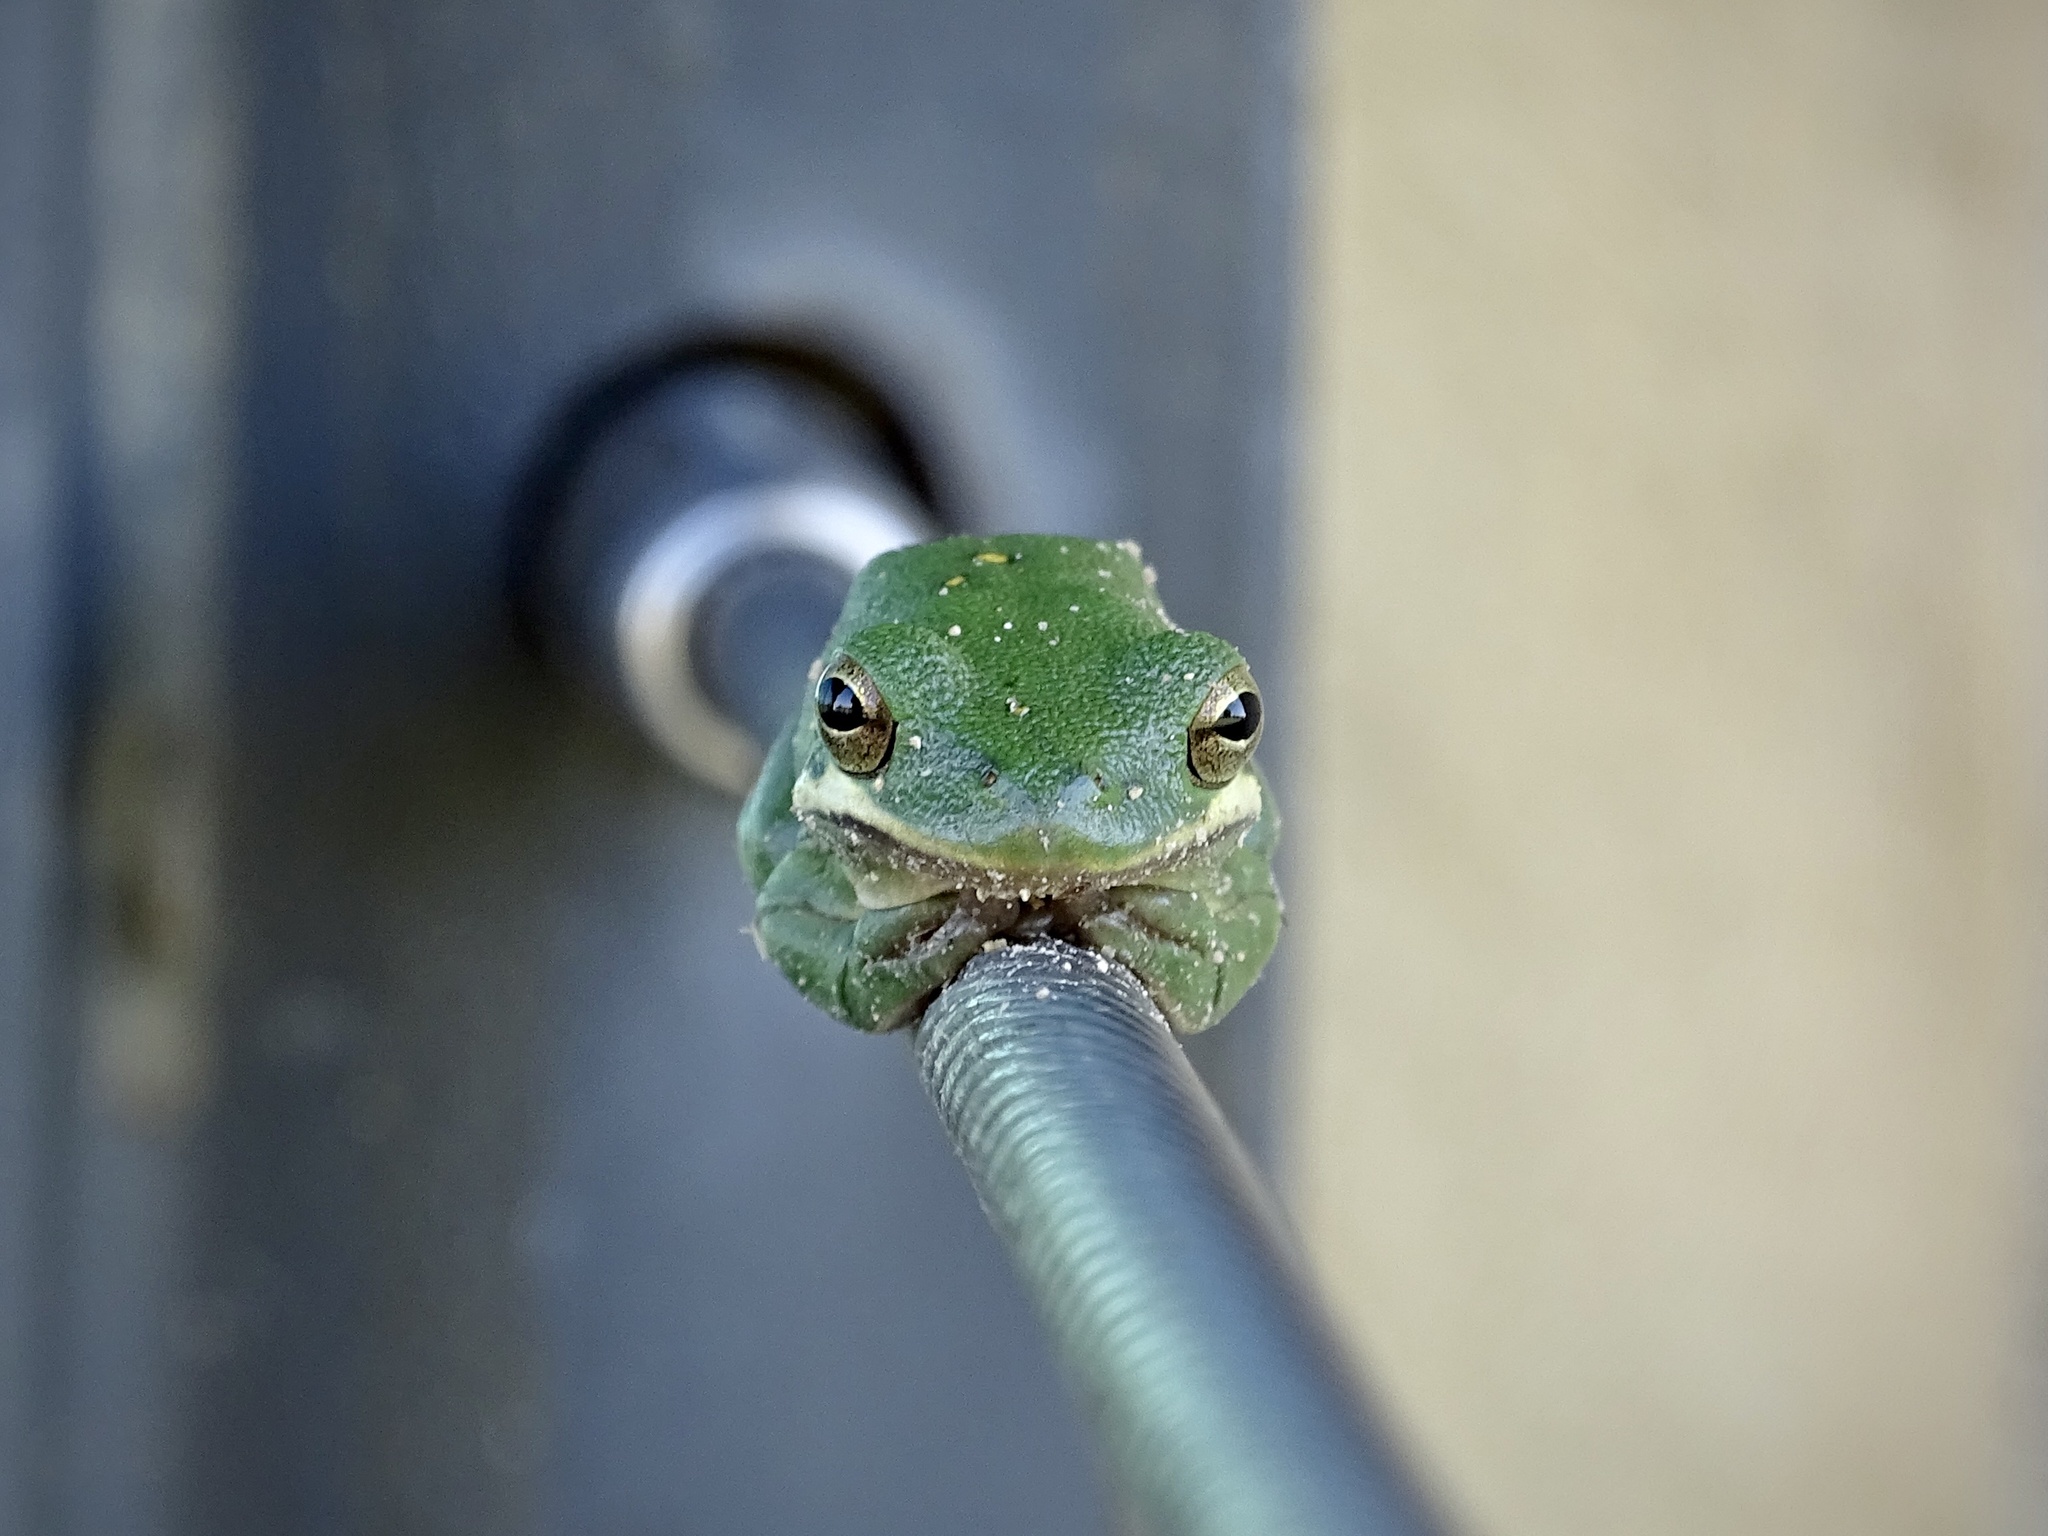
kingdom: Animalia
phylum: Chordata
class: Amphibia
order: Anura
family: Hylidae
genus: Dryophytes
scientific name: Dryophytes cinereus
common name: Green treefrog
